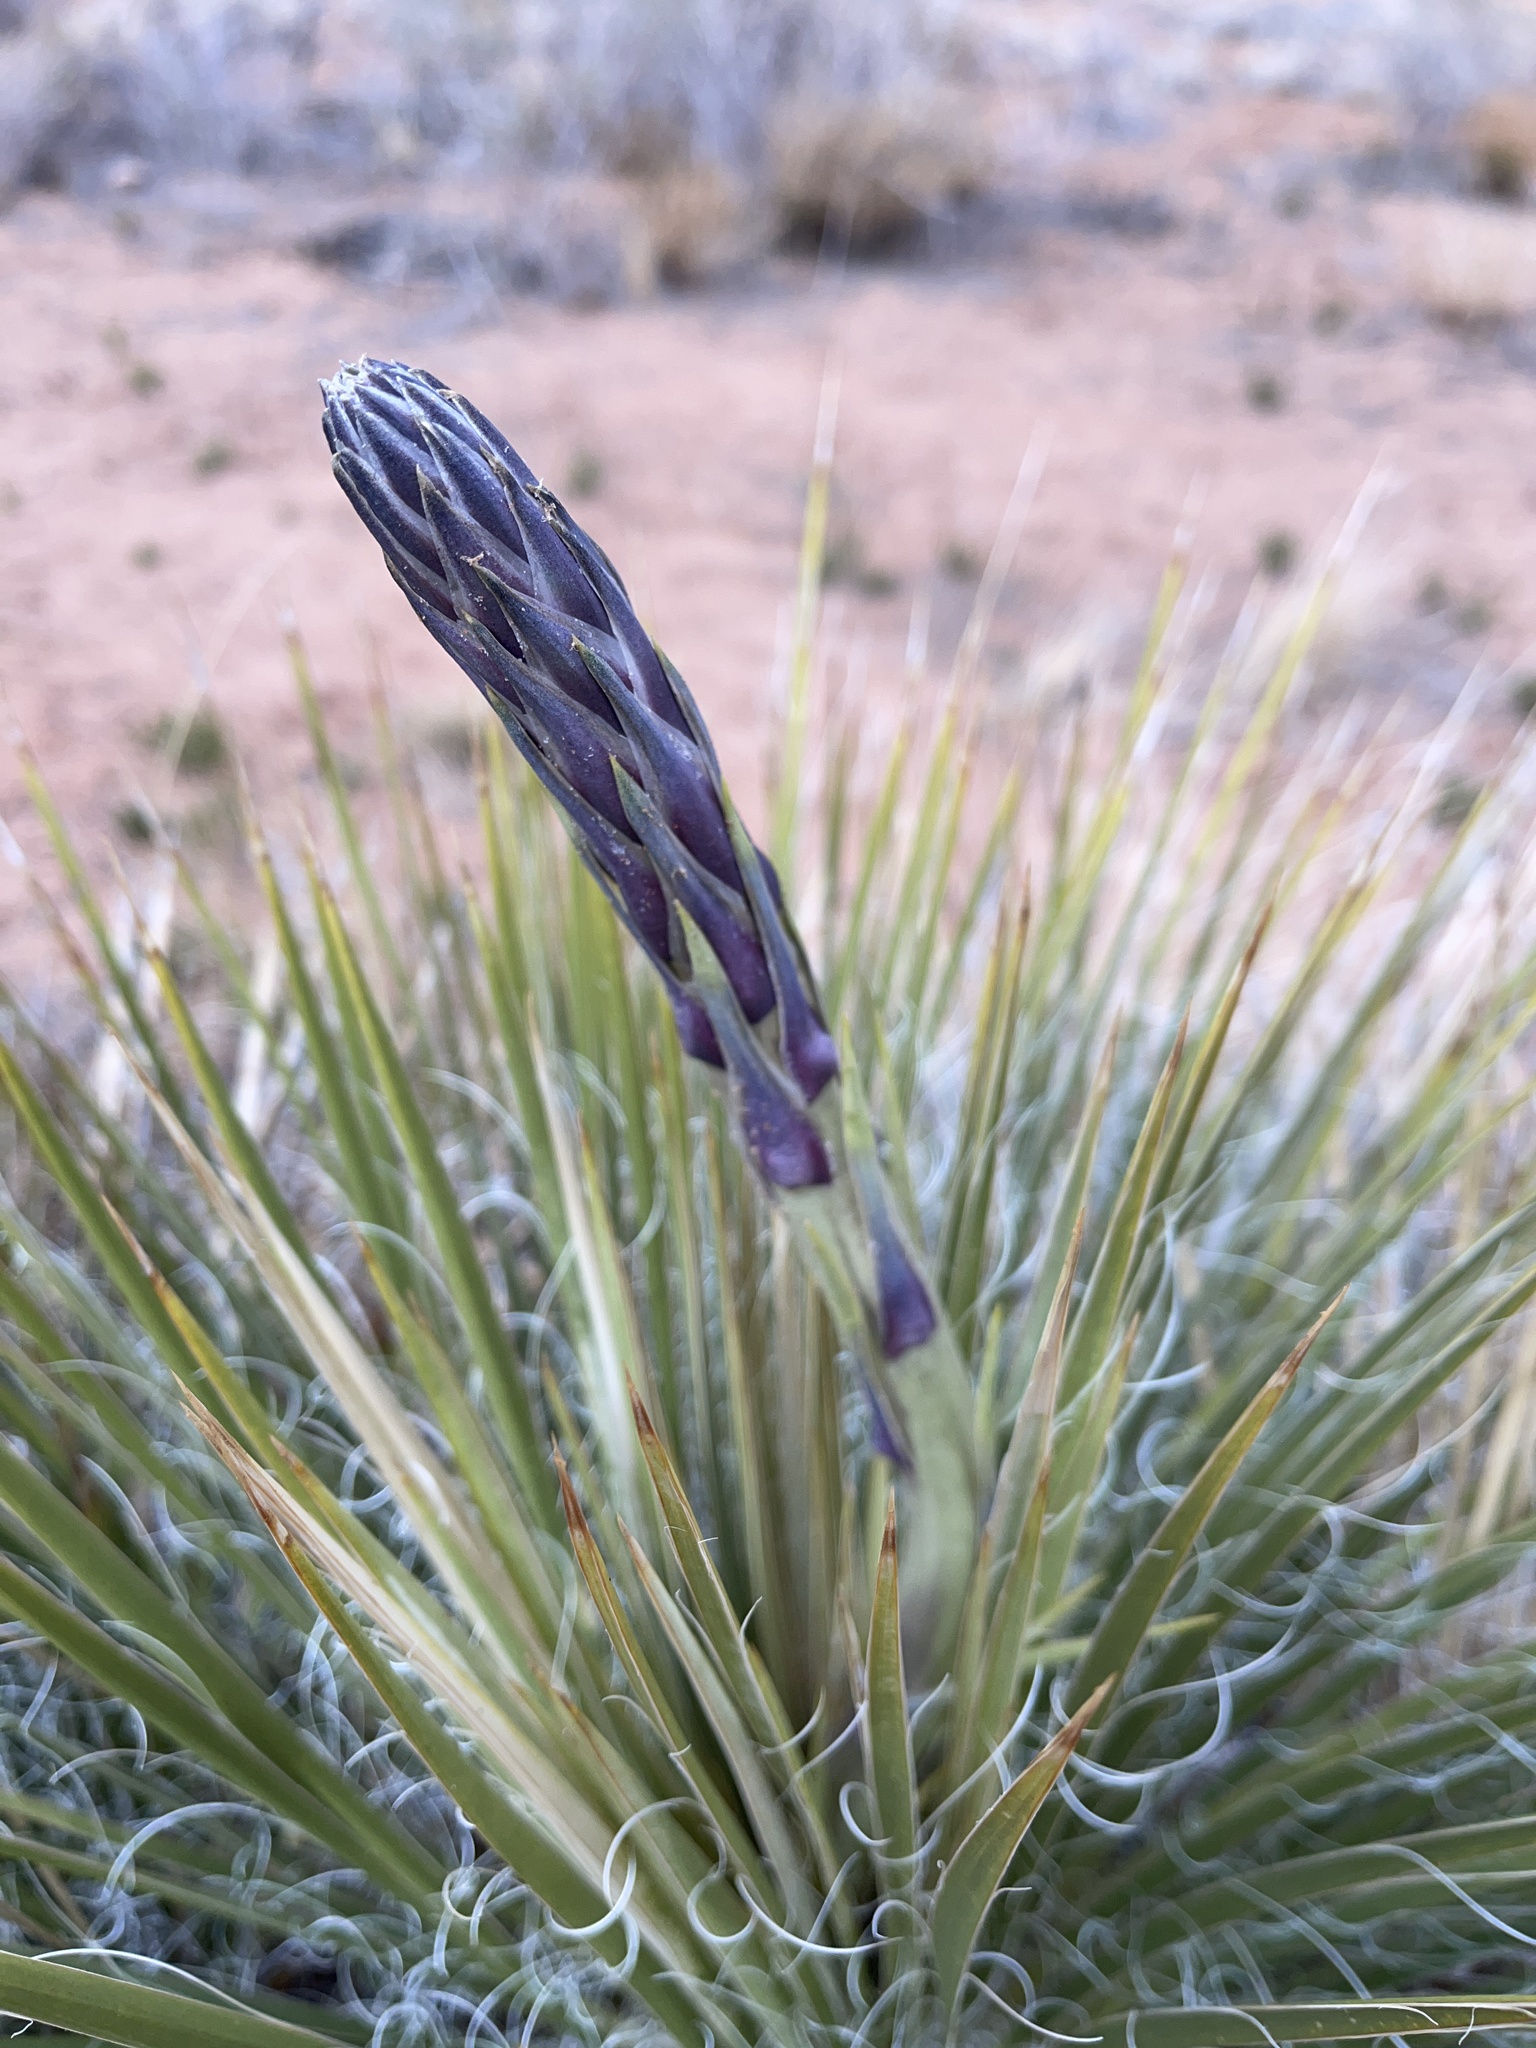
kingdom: Plantae
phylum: Tracheophyta
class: Liliopsida
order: Asparagales
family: Asparagaceae
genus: Yucca
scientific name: Yucca angustissima
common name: Narrowleaf yucca
